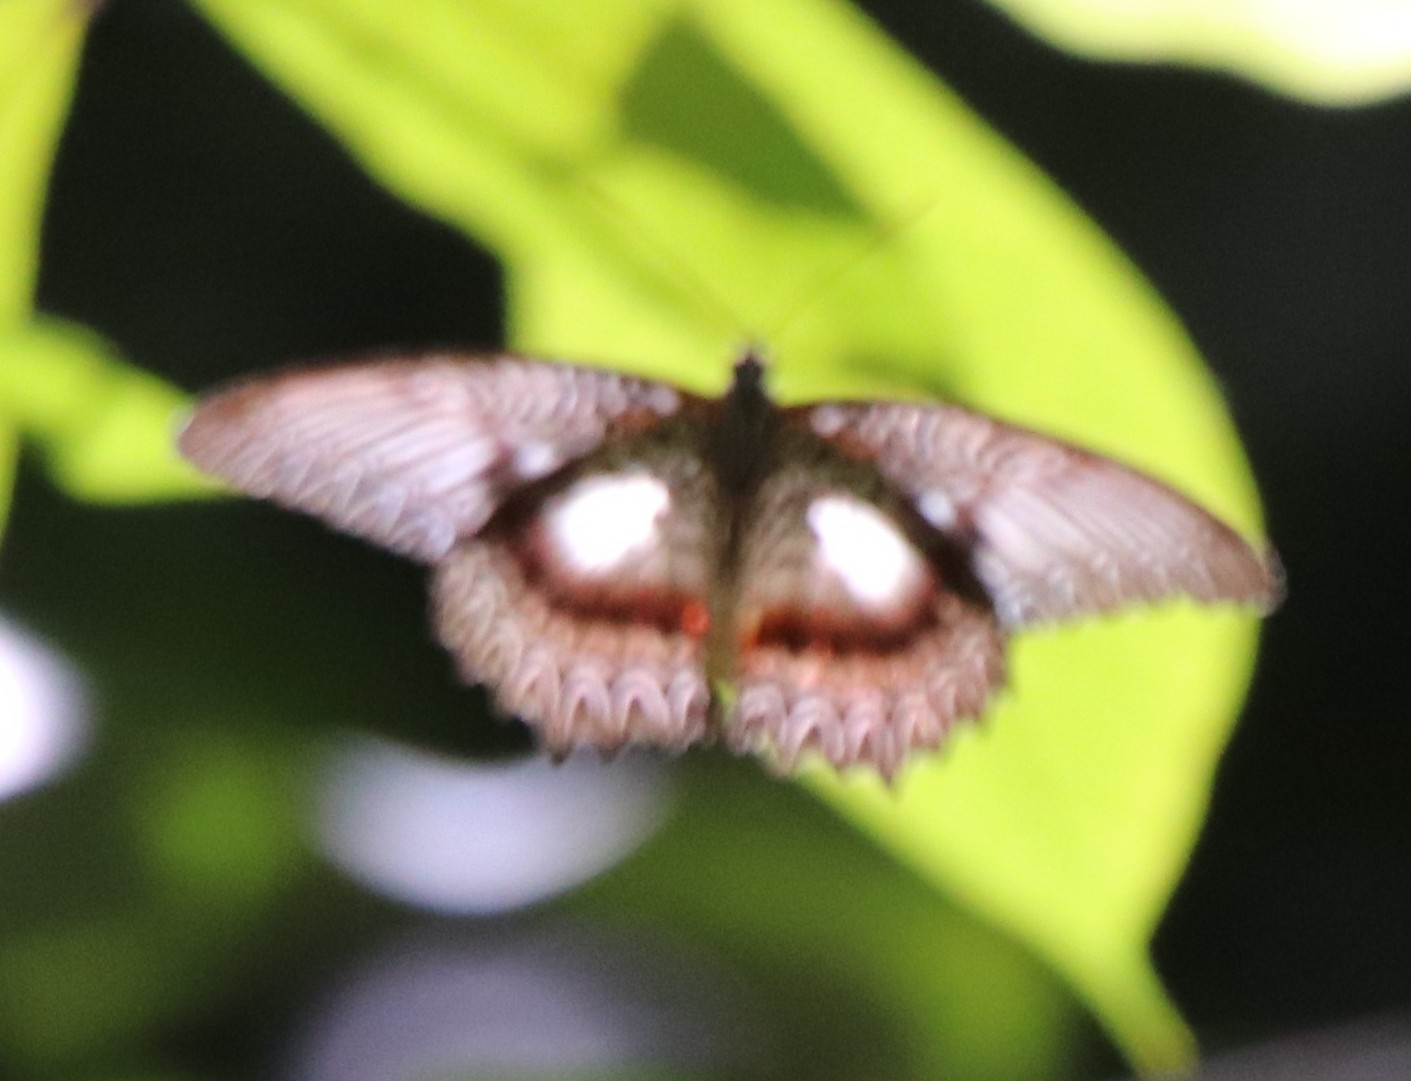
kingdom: Animalia
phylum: Arthropoda
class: Insecta
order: Lepidoptera
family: Nymphalidae
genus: Cethosia
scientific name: Cethosia myrina
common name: Violet lacewing
